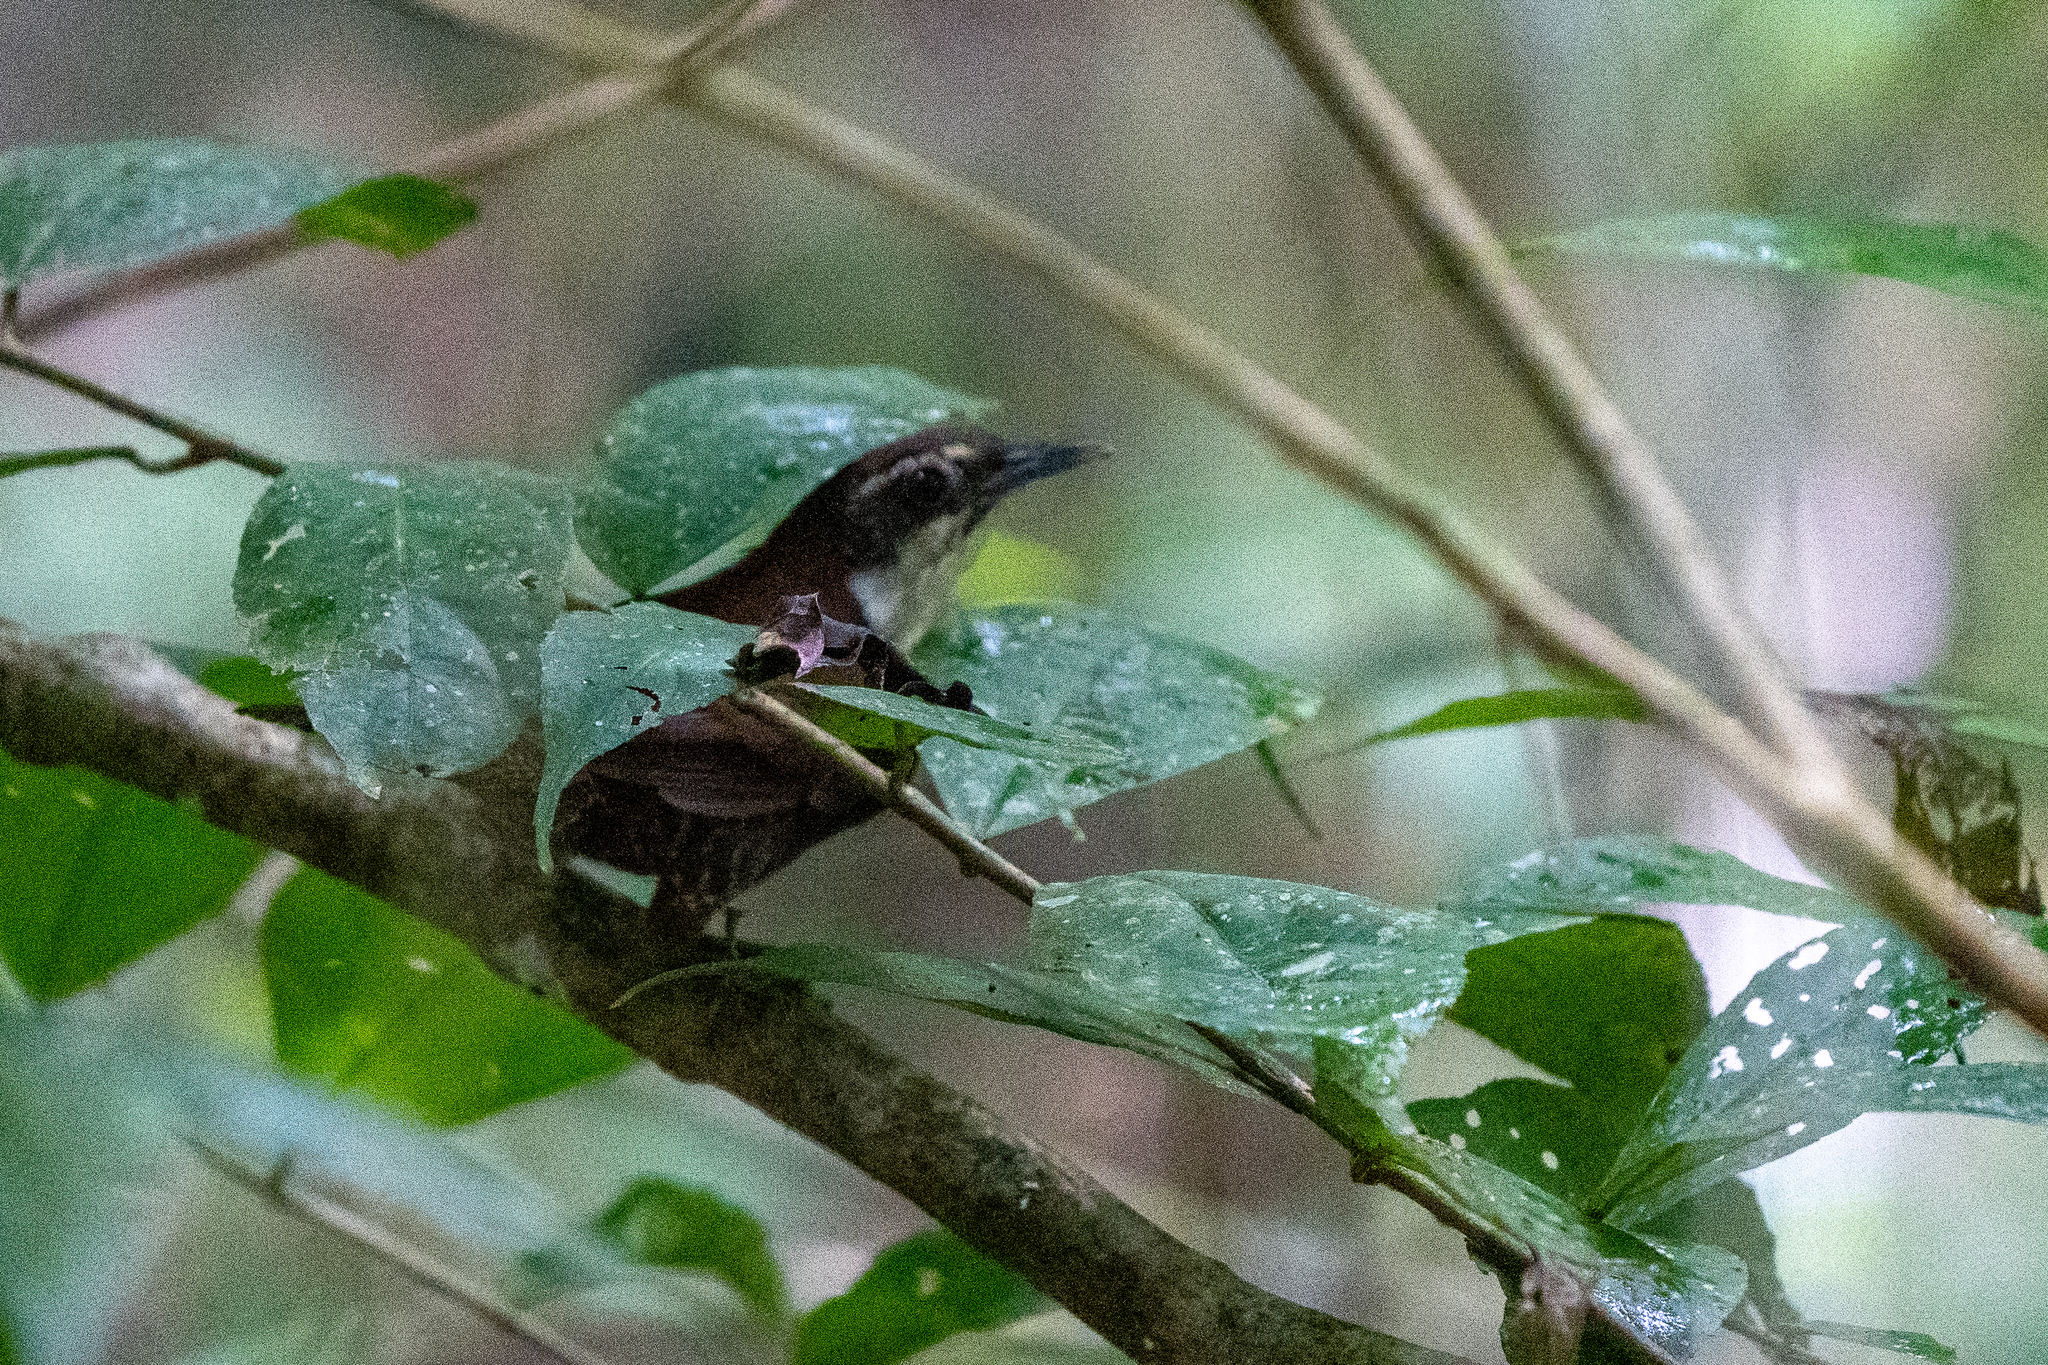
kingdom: Animalia
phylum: Chordata
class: Aves
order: Passeriformes
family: Troglodytidae
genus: Pheugopedius
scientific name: Pheugopedius fasciatoventris
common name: Black-bellied wren
